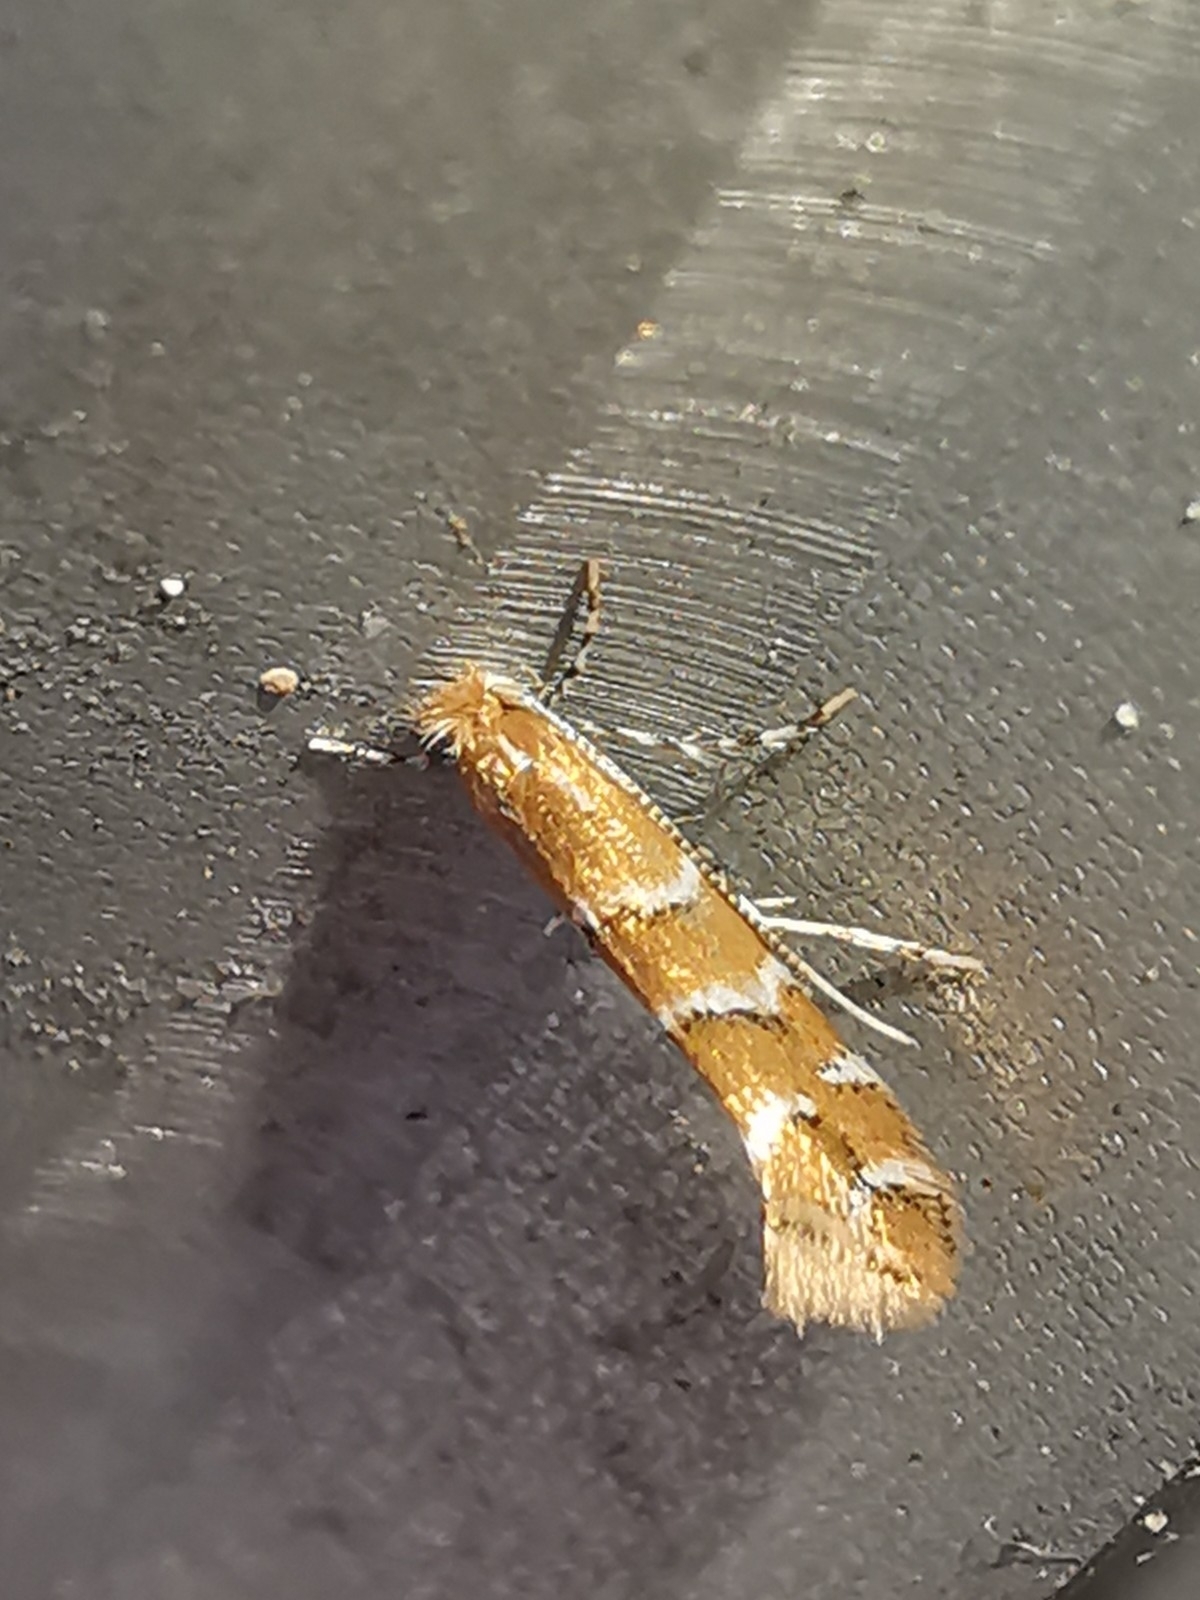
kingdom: Animalia
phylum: Arthropoda
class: Insecta
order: Lepidoptera
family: Gracillariidae
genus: Cameraria
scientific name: Cameraria ohridella
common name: Horse-chestnut leaf-miner
